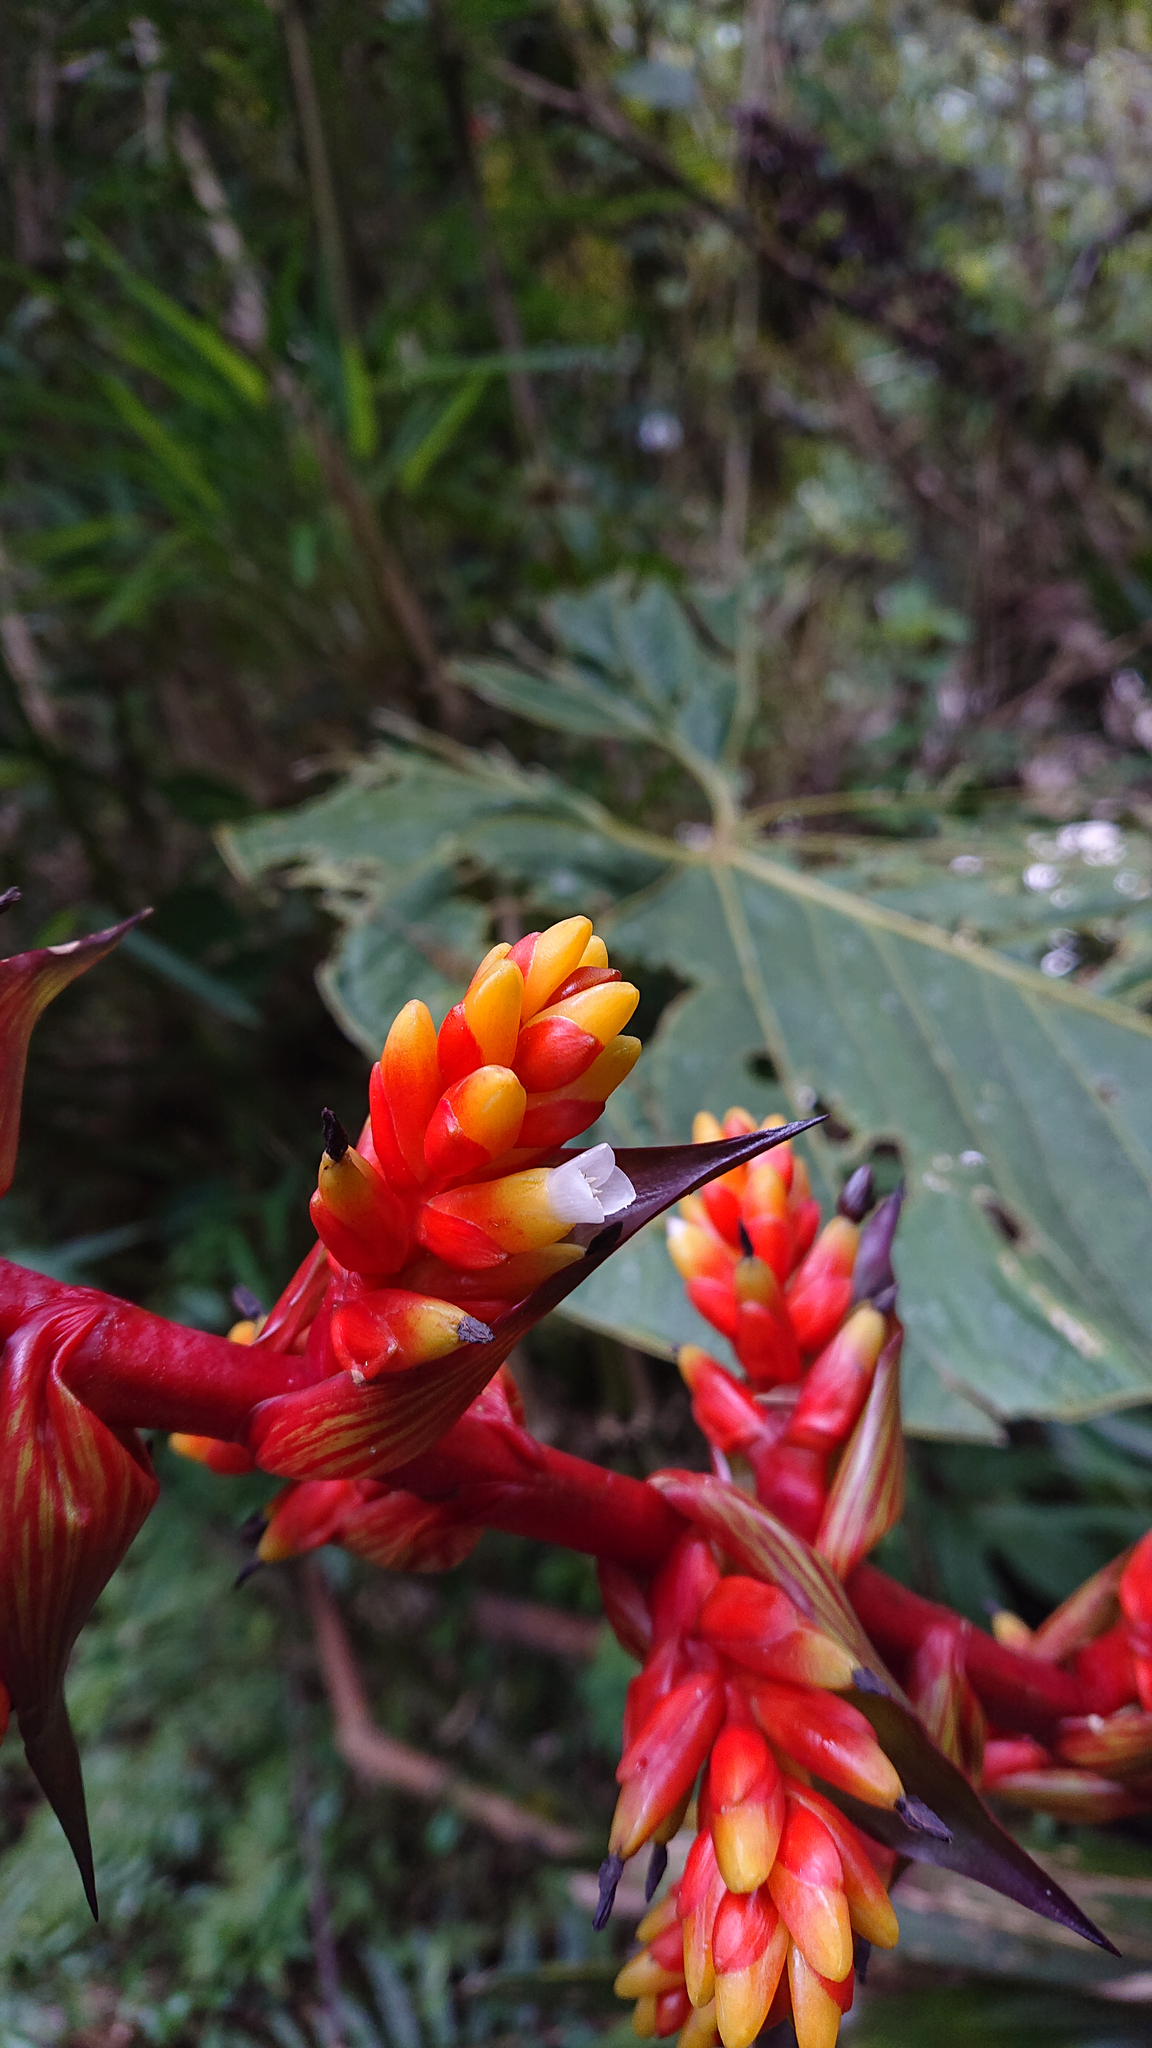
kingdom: Plantae
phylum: Tracheophyta
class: Liliopsida
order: Poales
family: Bromeliaceae
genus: Guzmania
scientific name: Guzmania multiflora
